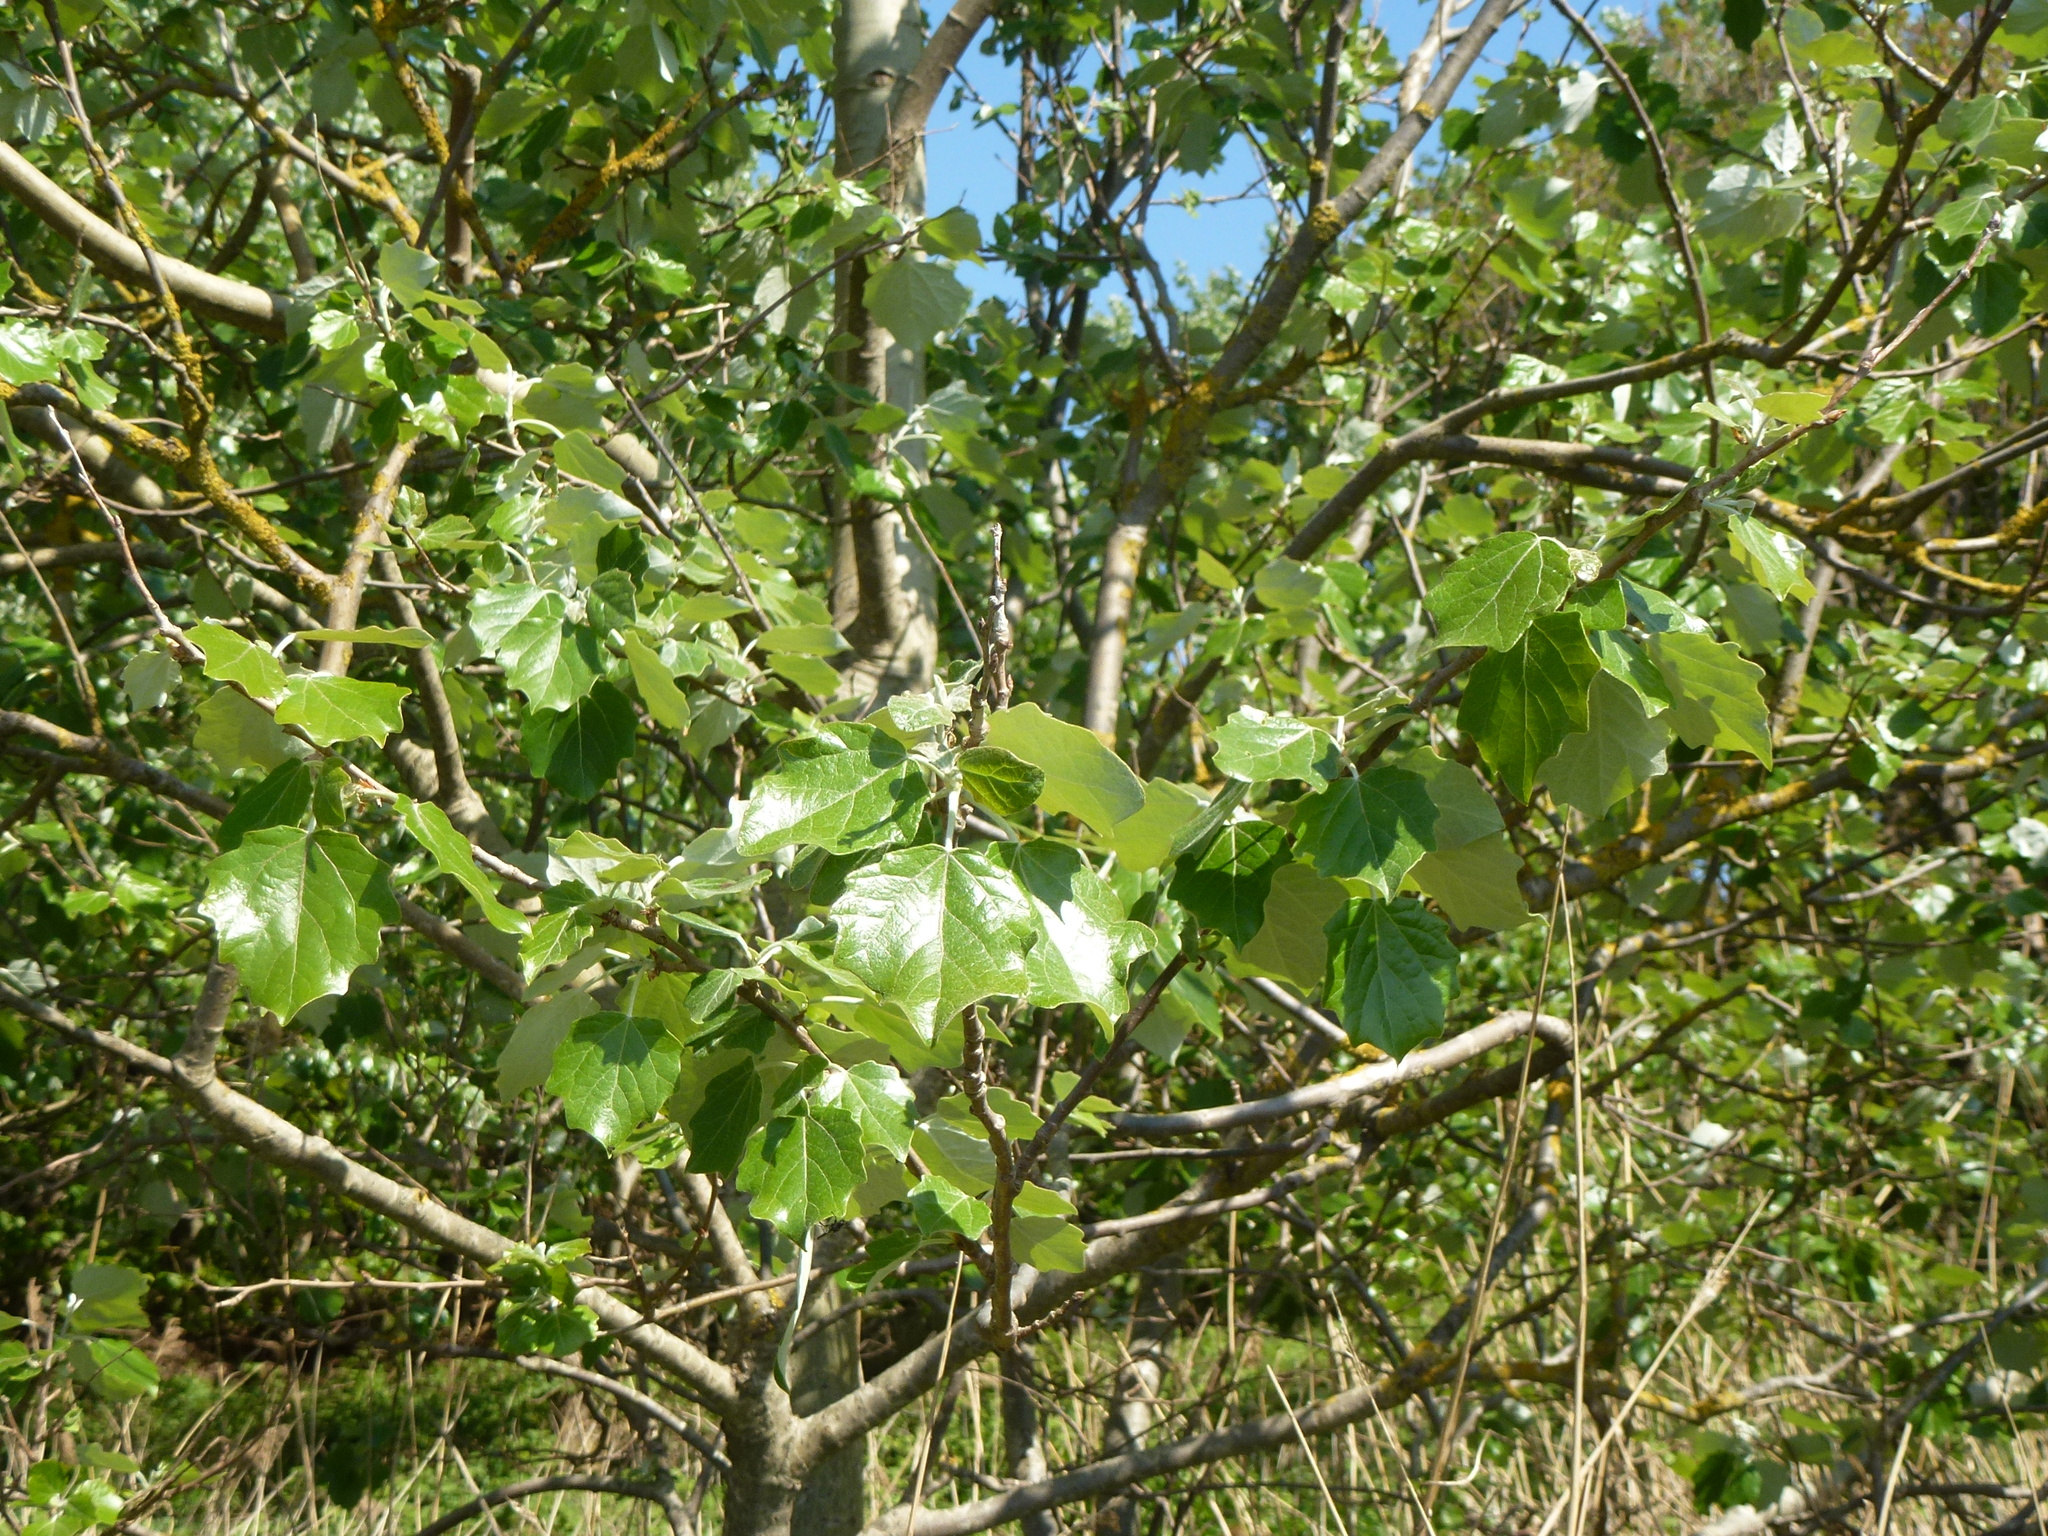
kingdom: Plantae
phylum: Tracheophyta
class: Magnoliopsida
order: Malpighiales
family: Salicaceae
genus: Populus
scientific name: Populus alba
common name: White poplar
